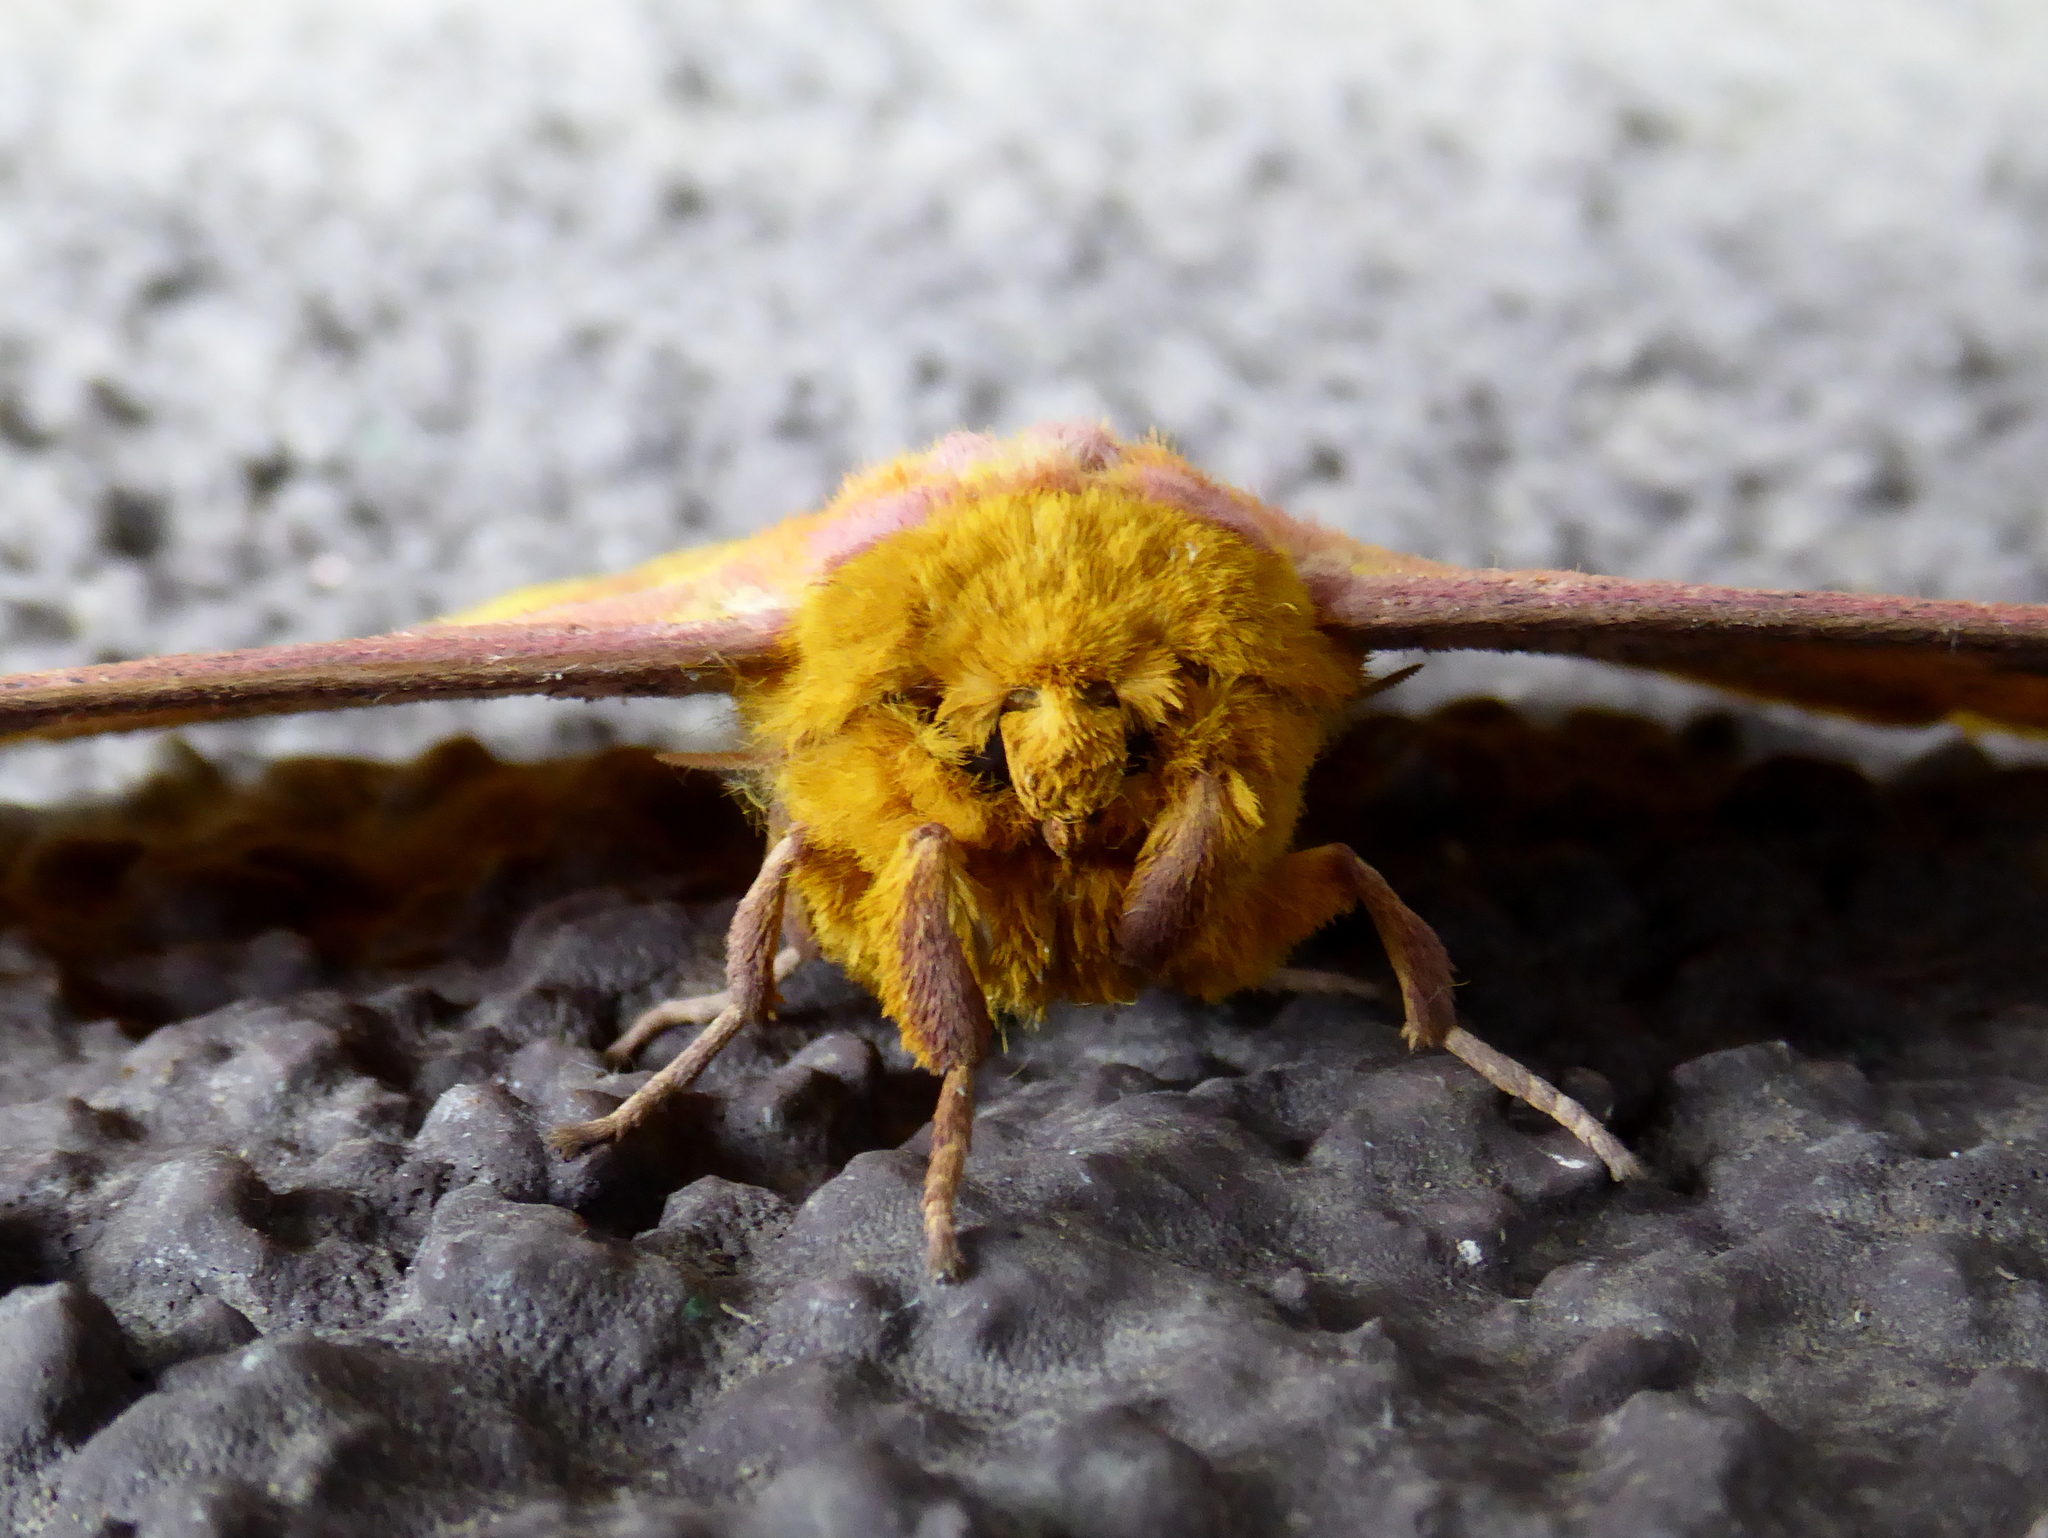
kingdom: Animalia
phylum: Arthropoda
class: Insecta
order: Lepidoptera
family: Saturniidae
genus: Eacles
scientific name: Eacles ormondei
